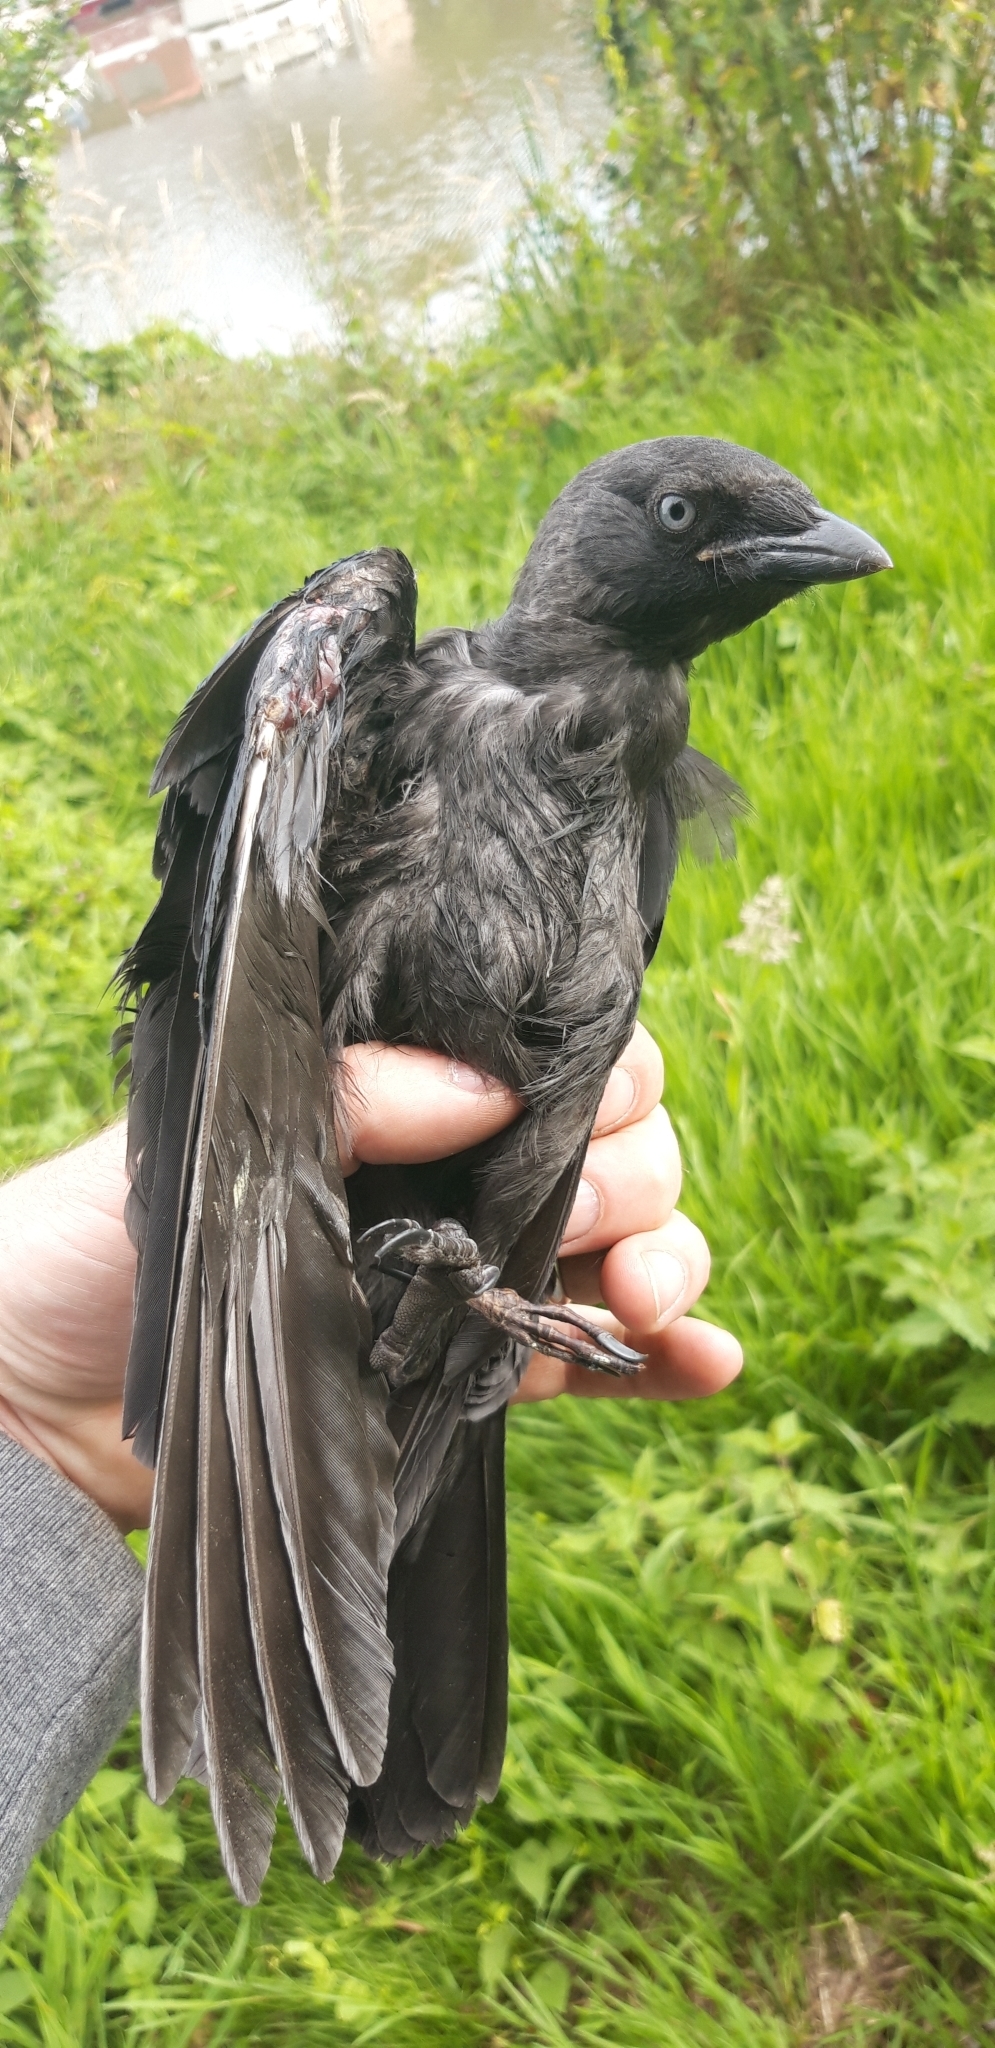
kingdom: Animalia
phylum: Chordata
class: Aves
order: Passeriformes
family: Corvidae
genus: Coloeus
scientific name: Coloeus monedula
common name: Western jackdaw
